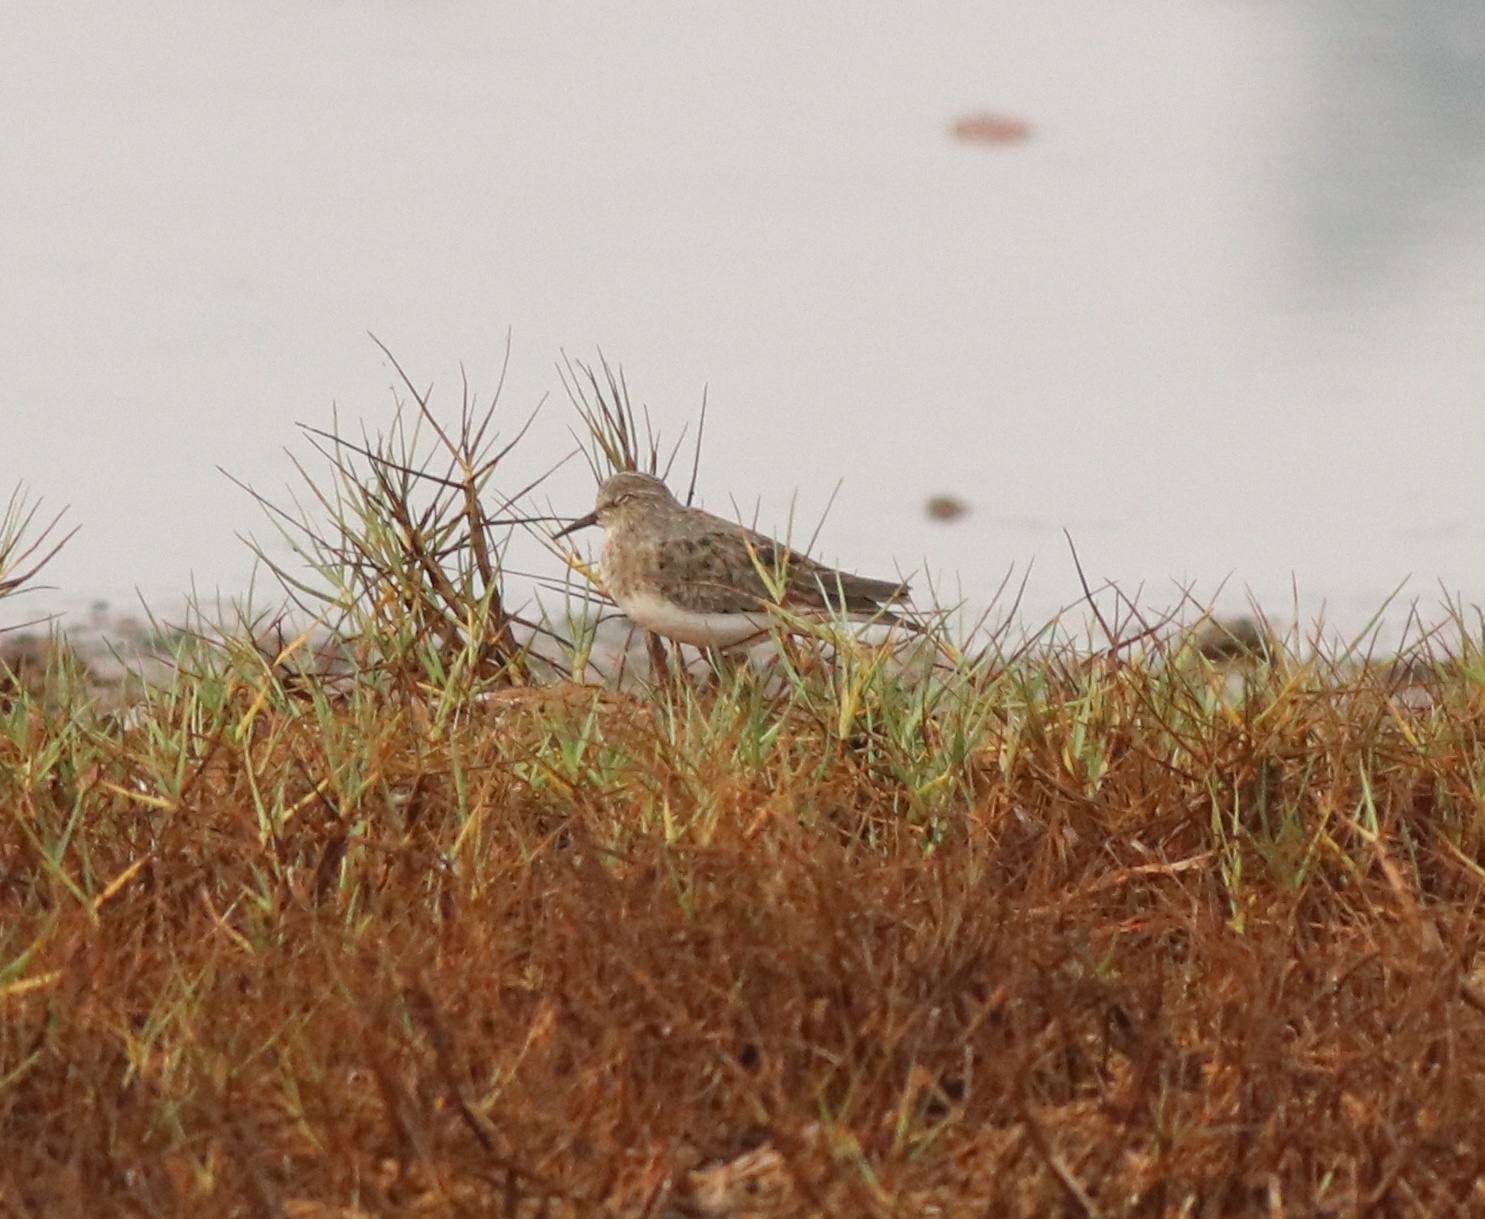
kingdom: Animalia
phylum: Chordata
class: Aves
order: Charadriiformes
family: Scolopacidae
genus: Calidris
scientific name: Calidris temminckii
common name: Temminck's stint
